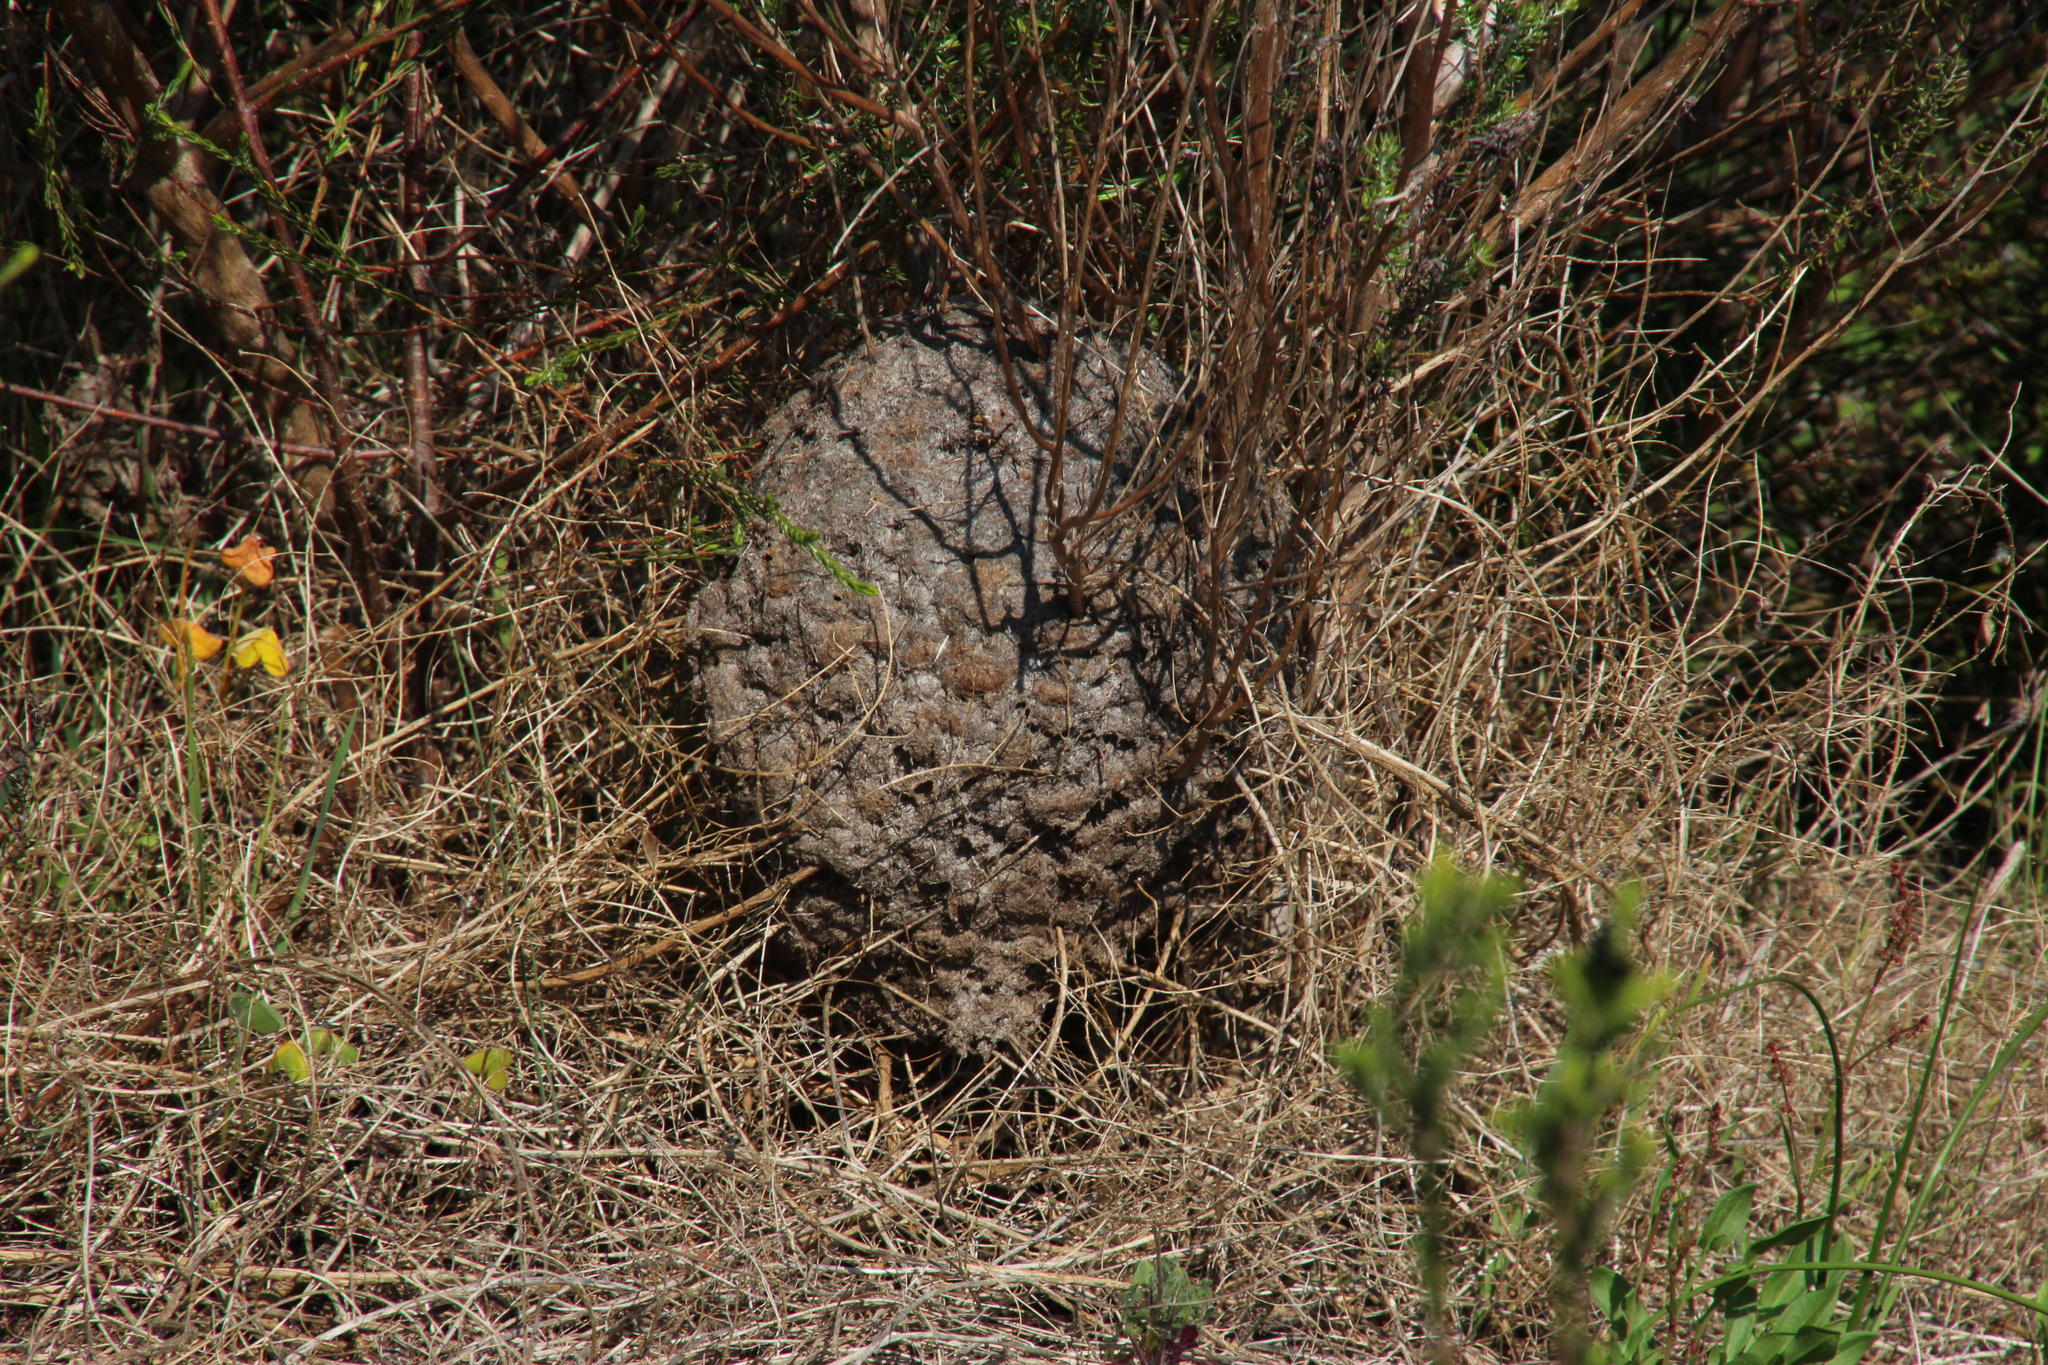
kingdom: Animalia
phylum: Arthropoda
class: Insecta
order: Hymenoptera
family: Formicidae
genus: Crematogaster
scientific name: Crematogaster peringueyi
